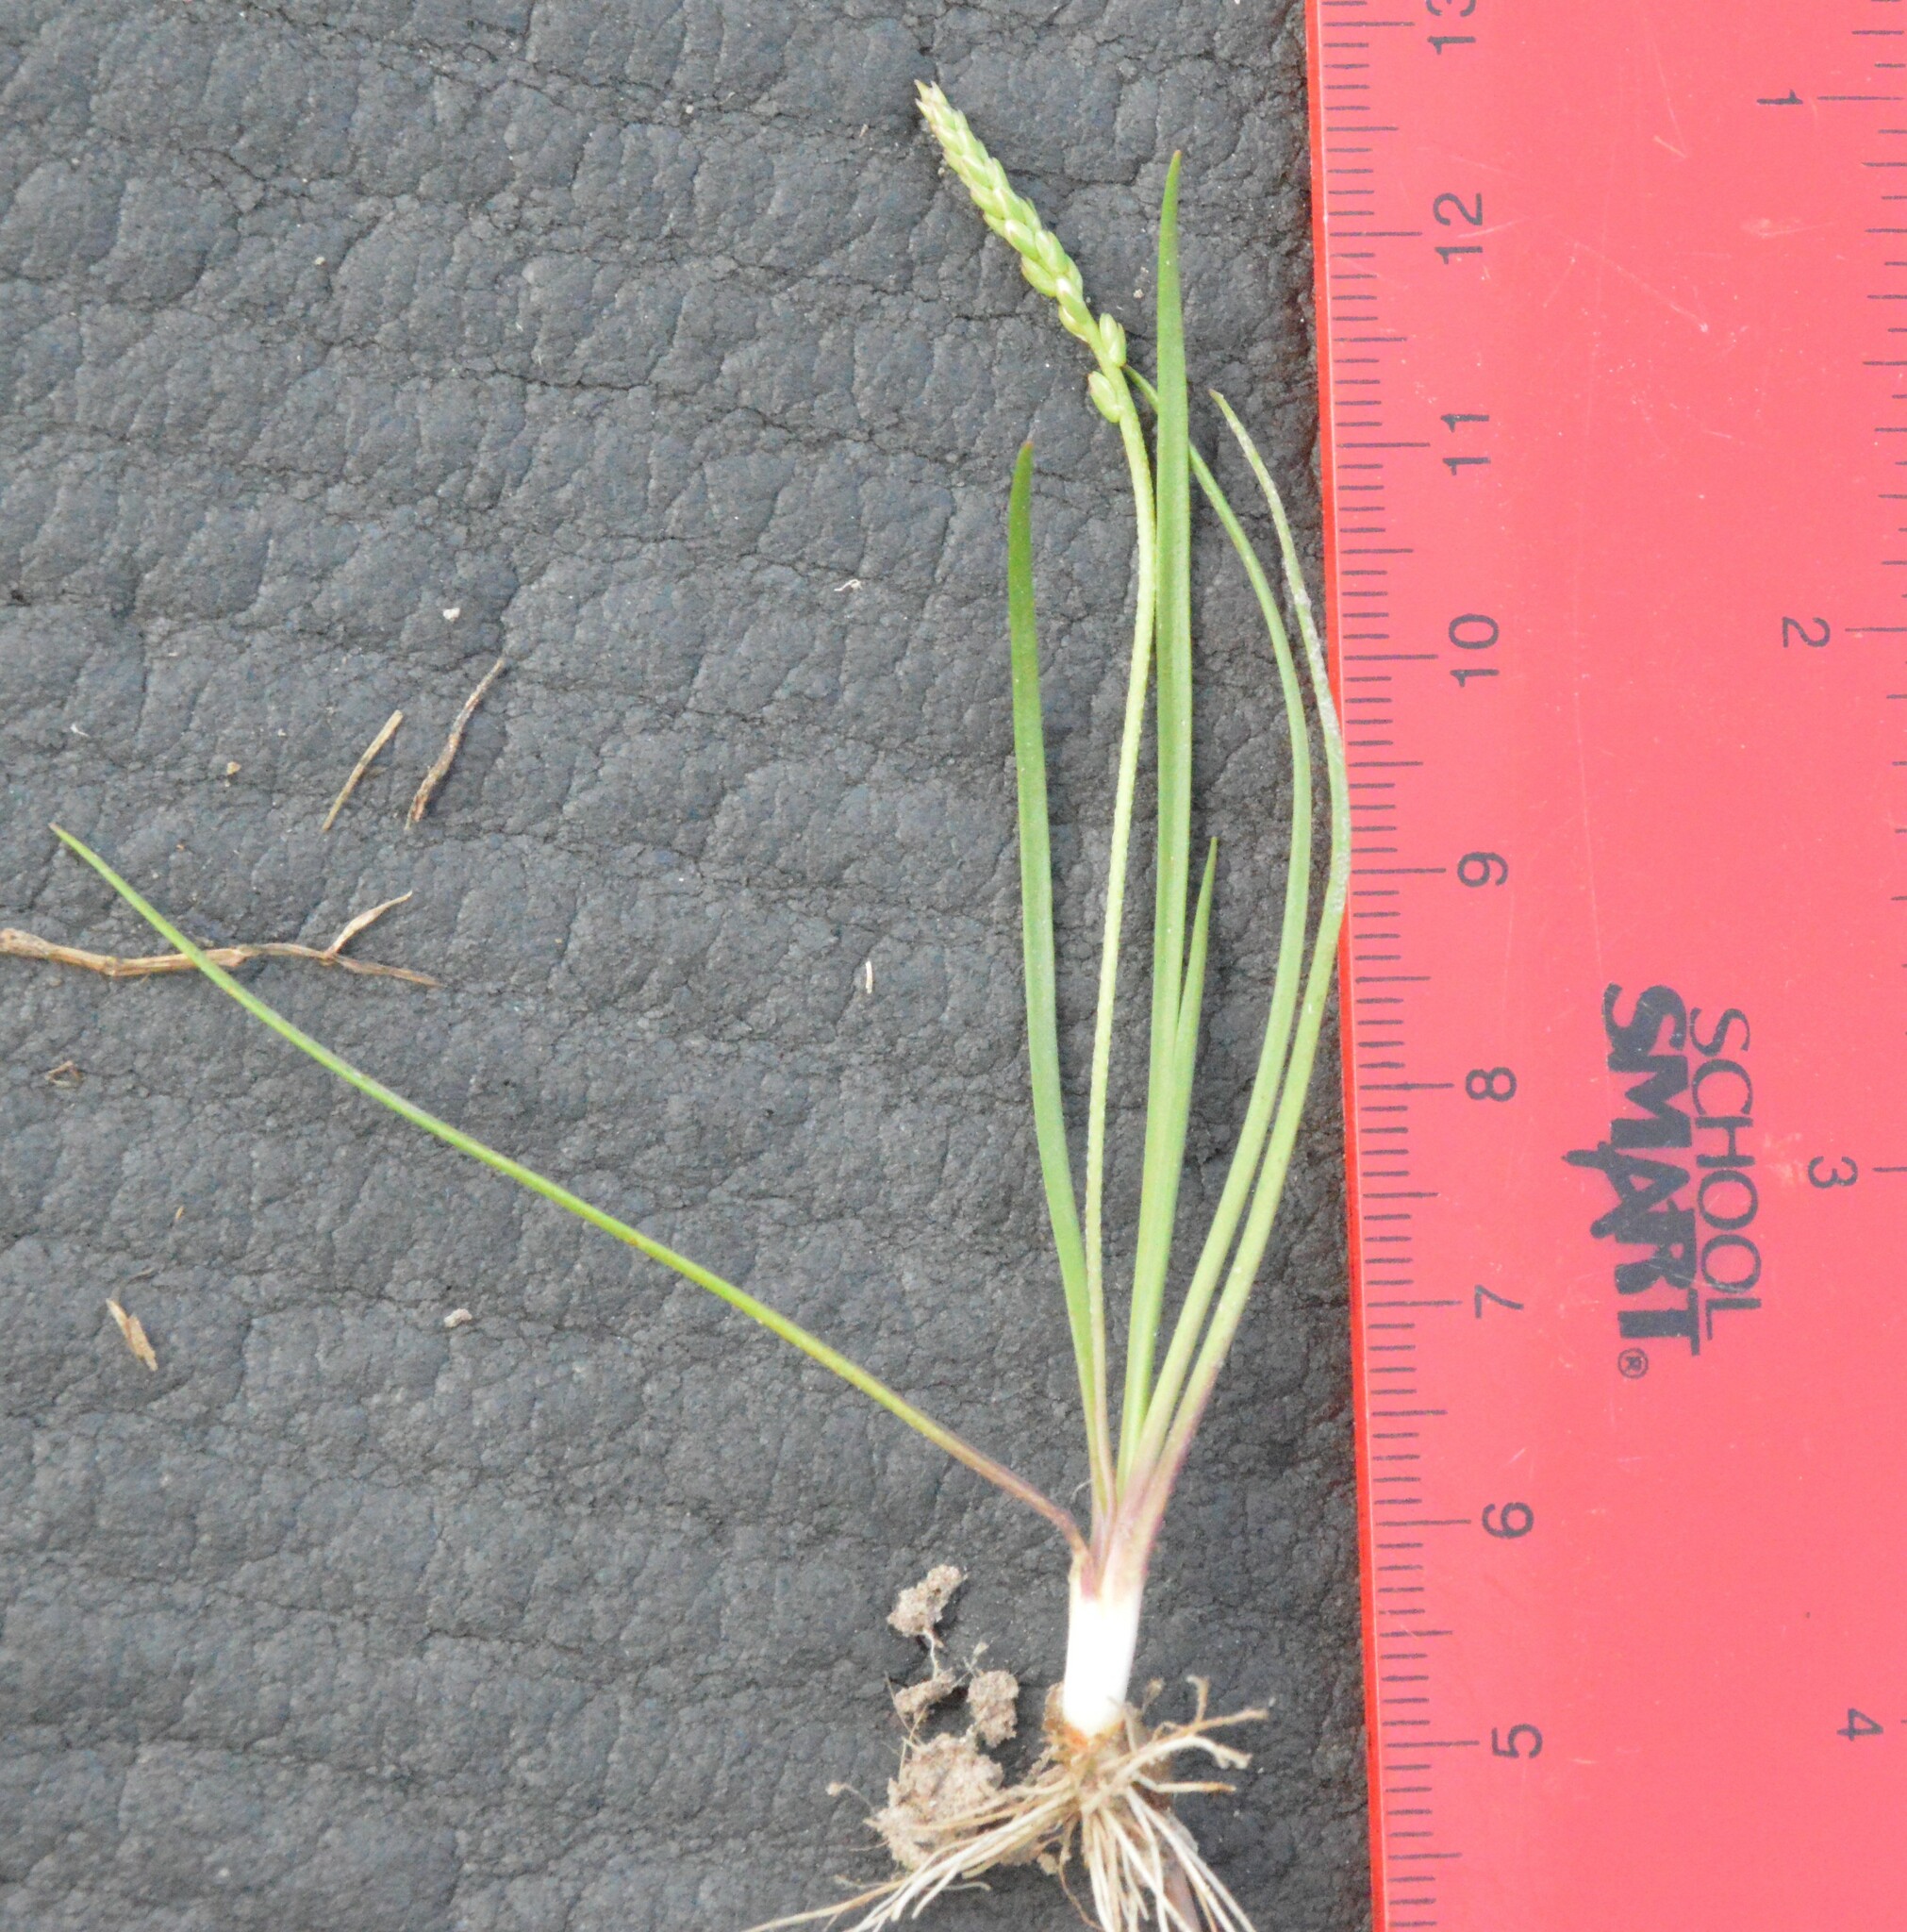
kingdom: Plantae
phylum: Tracheophyta
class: Magnoliopsida
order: Lamiales
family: Plantaginaceae
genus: Plantago
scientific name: Plantago heterophylla
